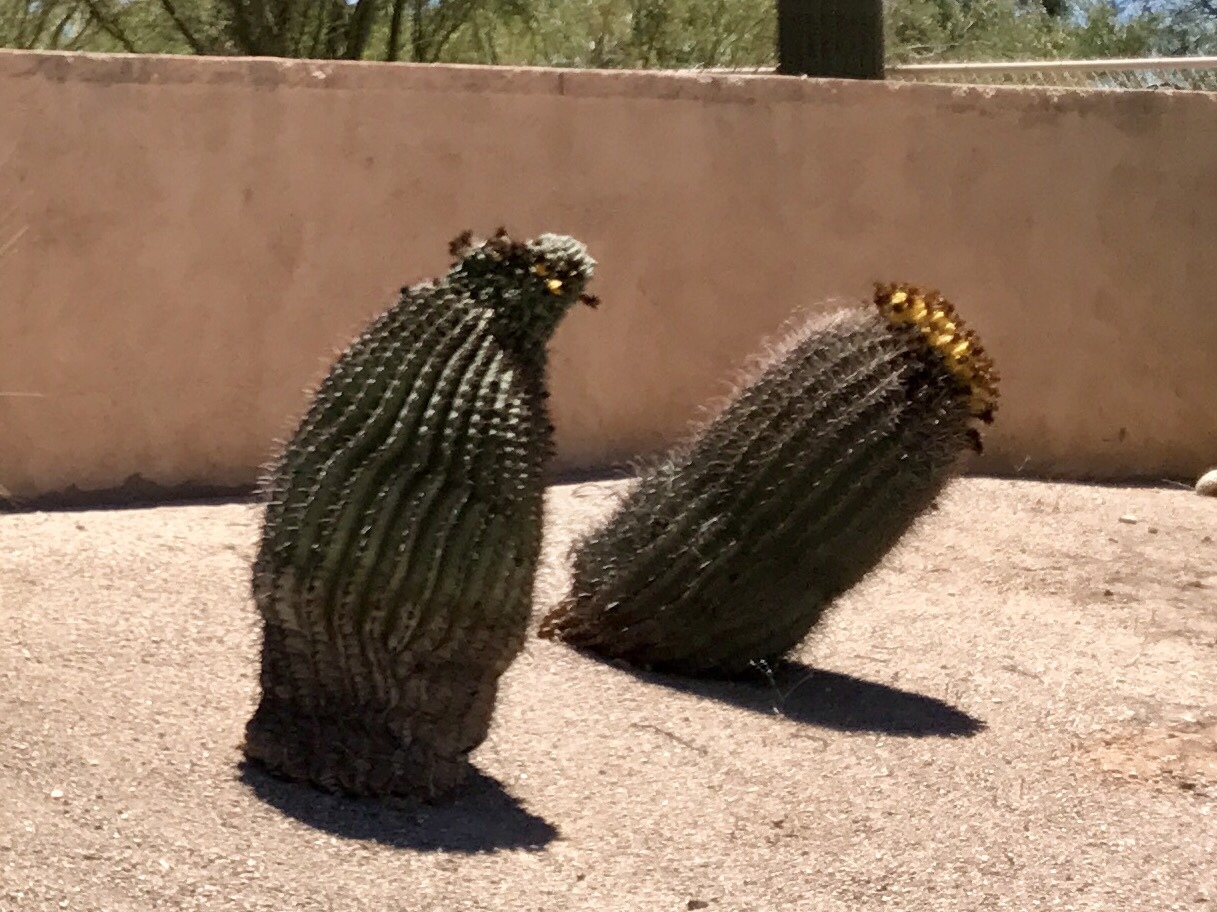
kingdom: Plantae
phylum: Tracheophyta
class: Magnoliopsida
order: Caryophyllales
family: Cactaceae
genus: Ferocactus
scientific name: Ferocactus wislizeni
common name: Candy barrel cactus
